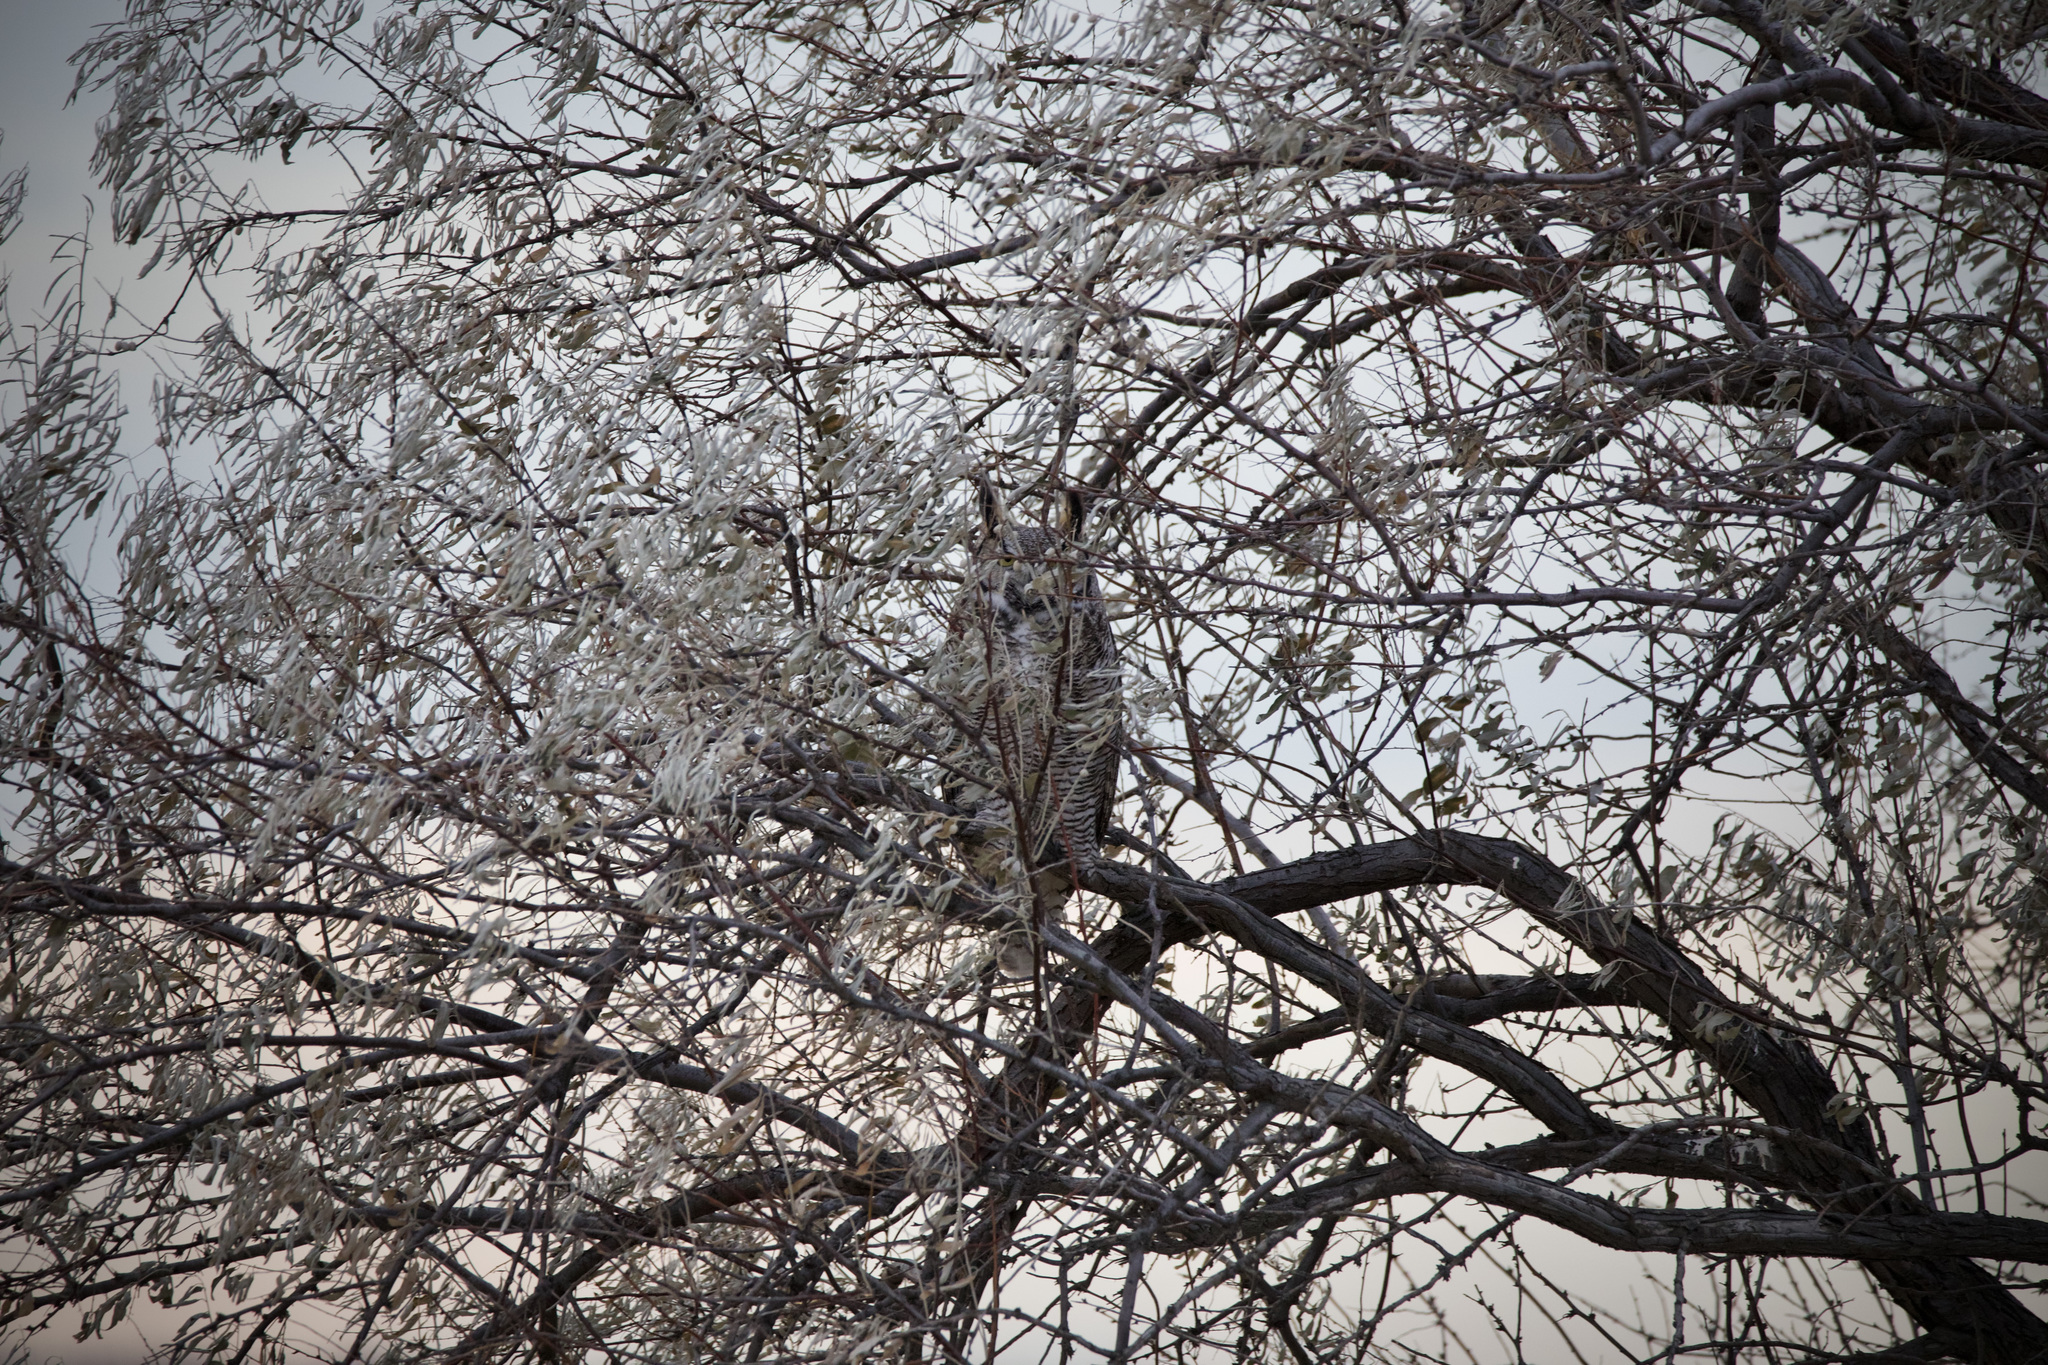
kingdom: Animalia
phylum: Chordata
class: Aves
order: Strigiformes
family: Strigidae
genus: Bubo
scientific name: Bubo virginianus
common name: Great horned owl
